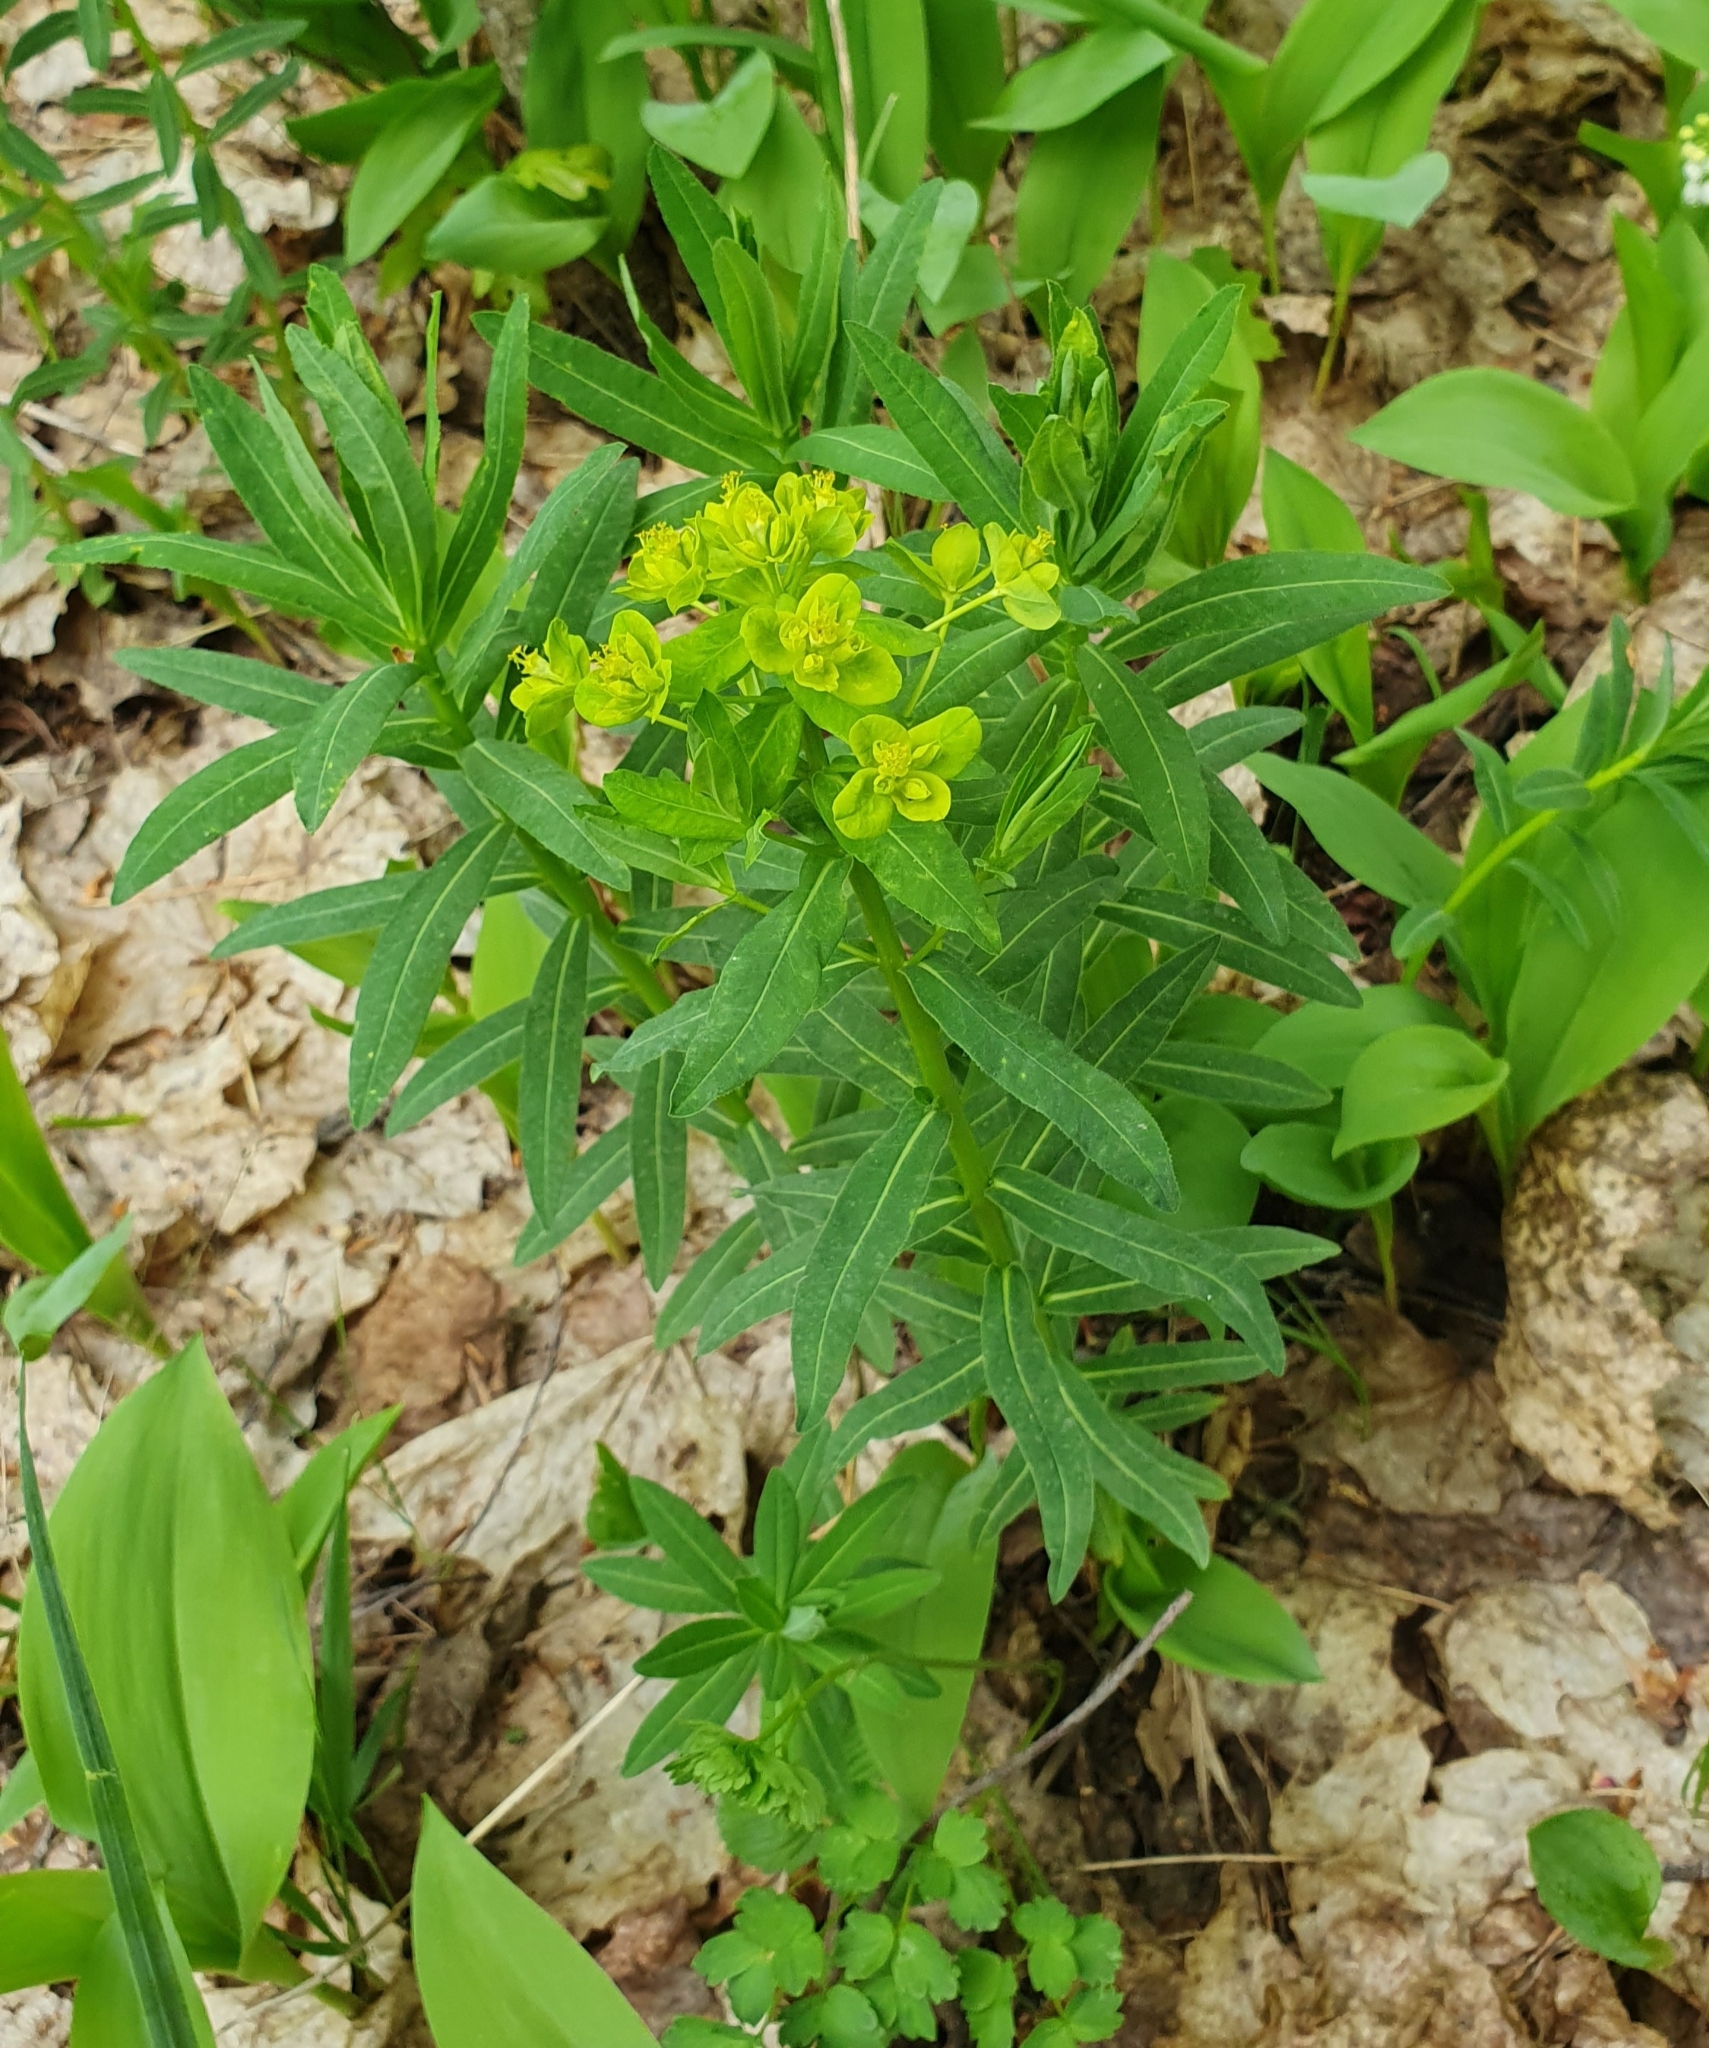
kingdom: Plantae
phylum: Tracheophyta
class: Magnoliopsida
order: Malpighiales
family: Euphorbiaceae
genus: Euphorbia
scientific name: Euphorbia semivillosa
